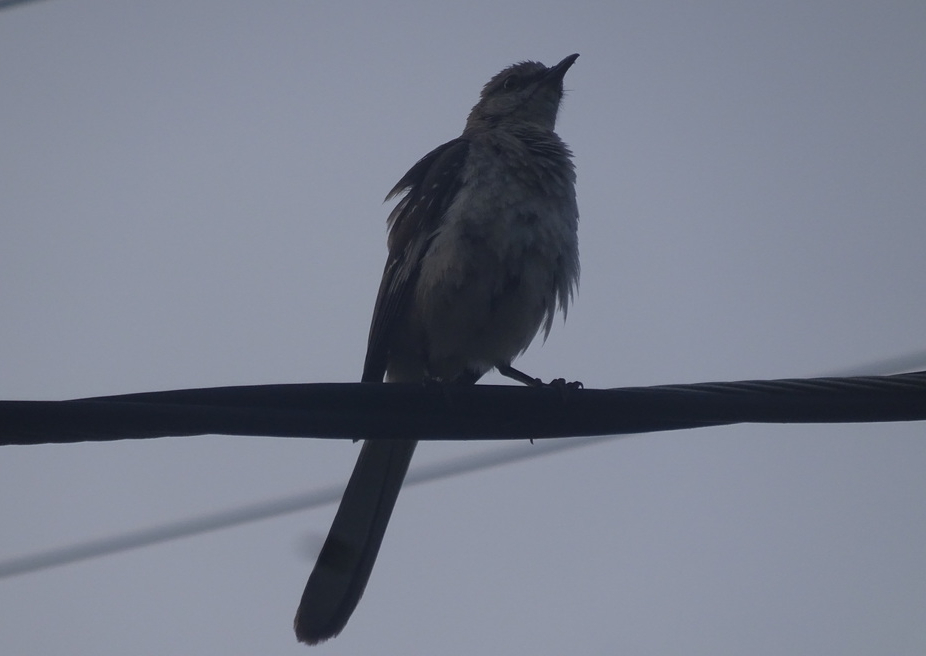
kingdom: Animalia
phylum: Chordata
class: Aves
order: Passeriformes
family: Mimidae
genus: Mimus
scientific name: Mimus polyglottos
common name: Northern mockingbird
